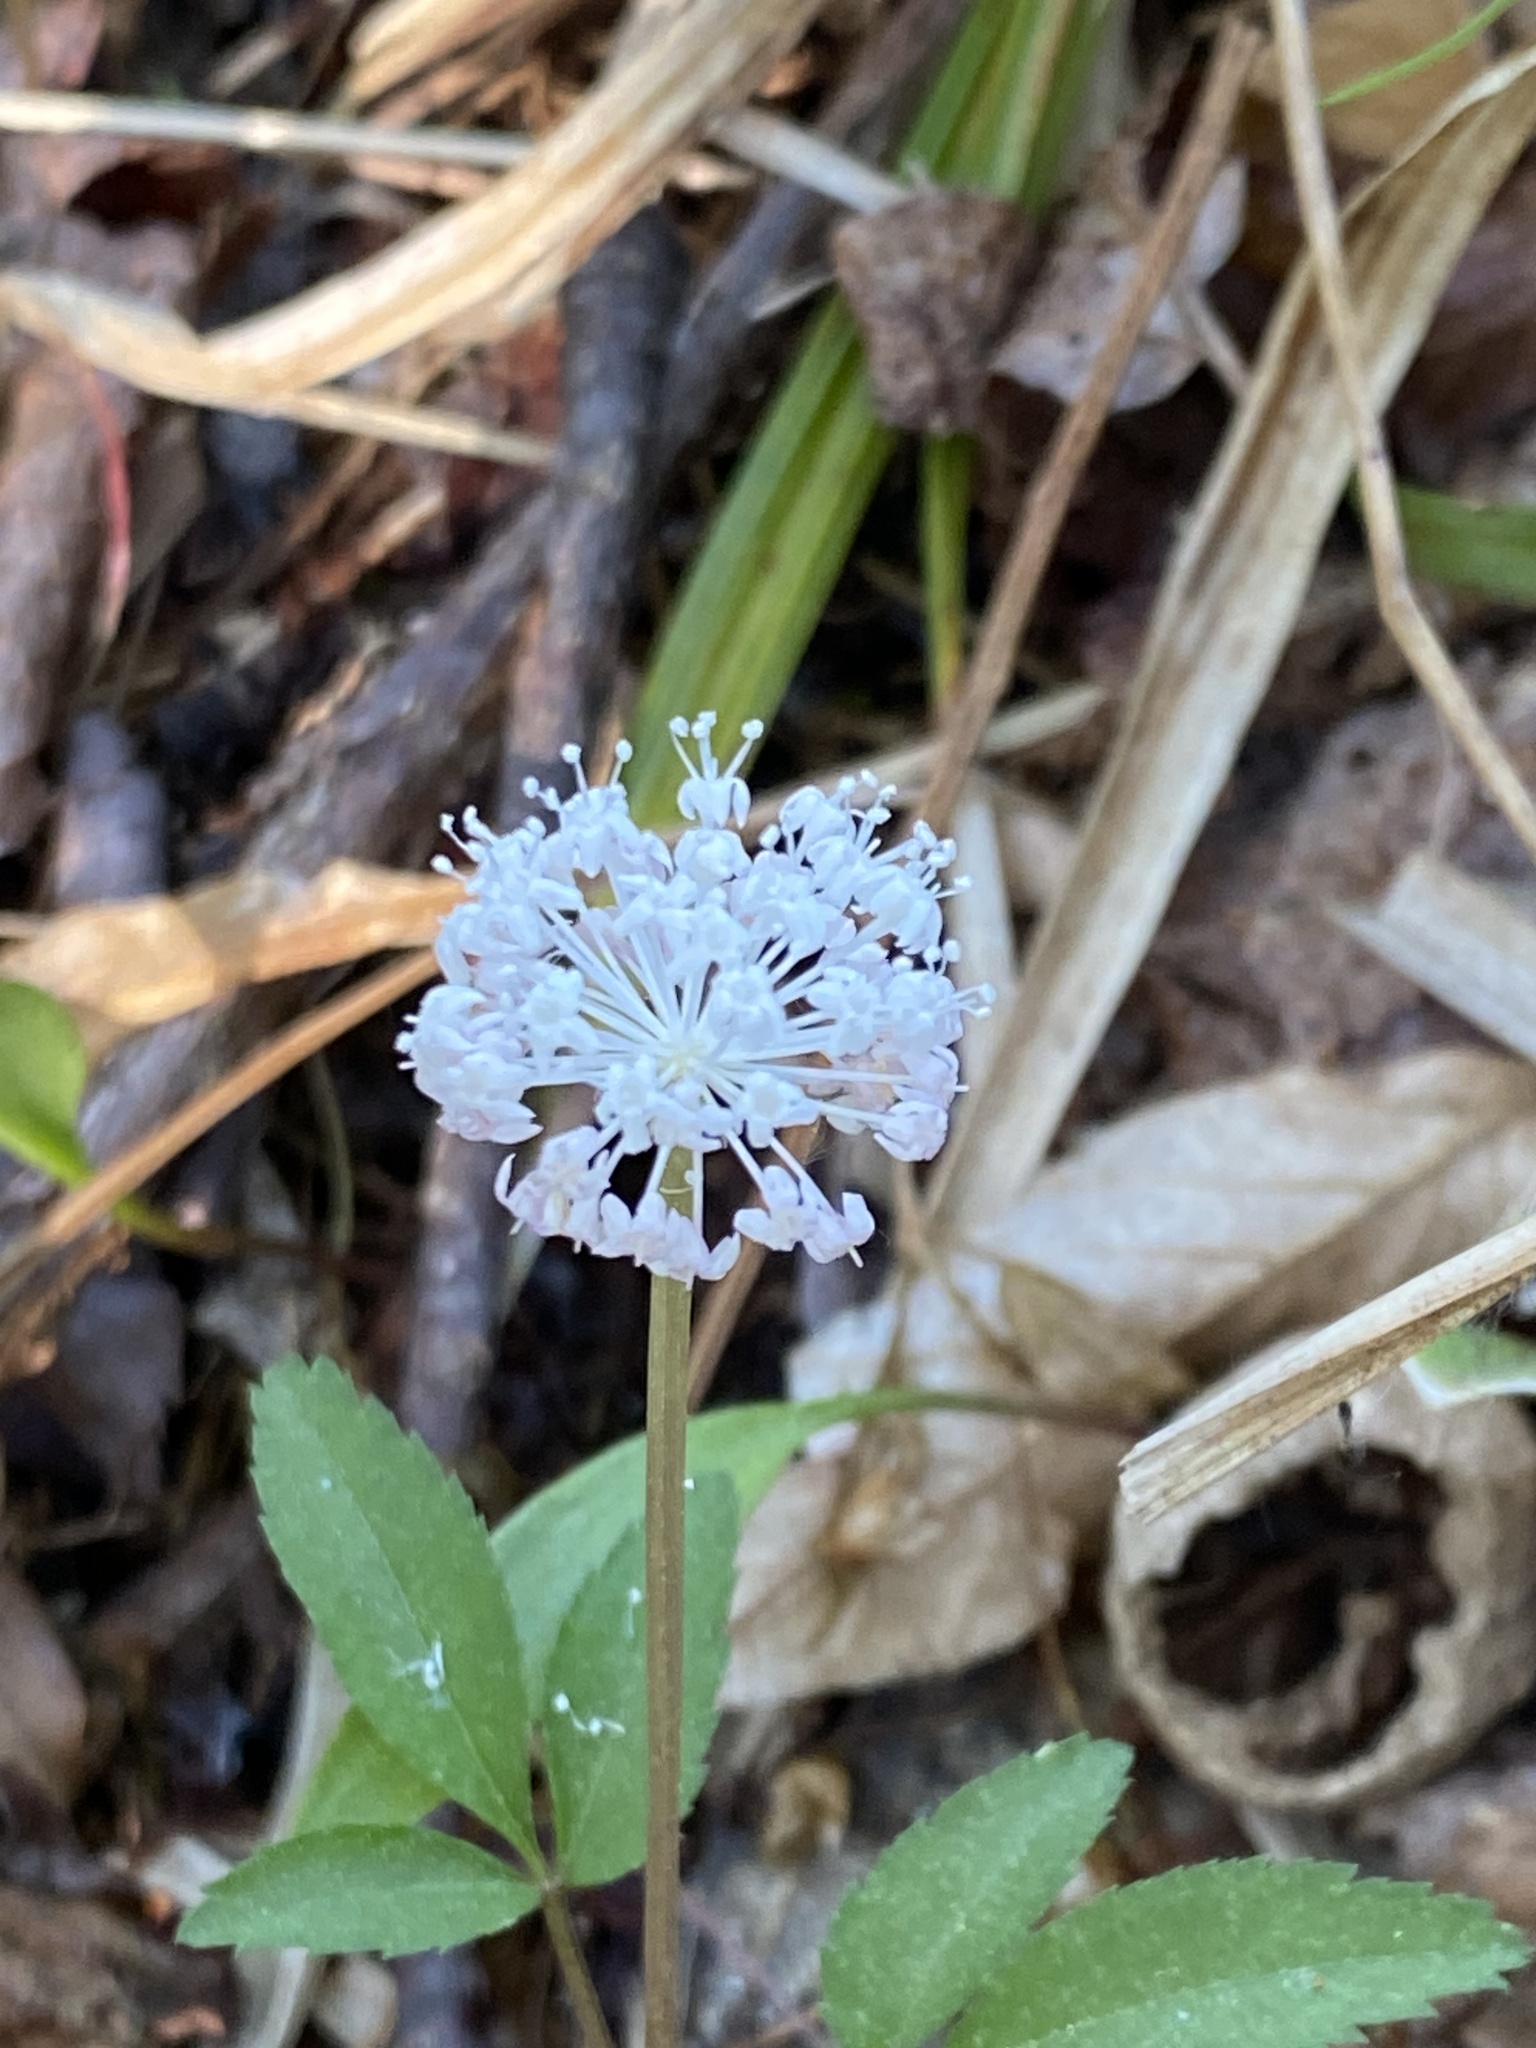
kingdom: Plantae
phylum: Tracheophyta
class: Magnoliopsida
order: Apiales
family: Araliaceae
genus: Panax
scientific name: Panax trifolius
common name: Dwarf ginseng
